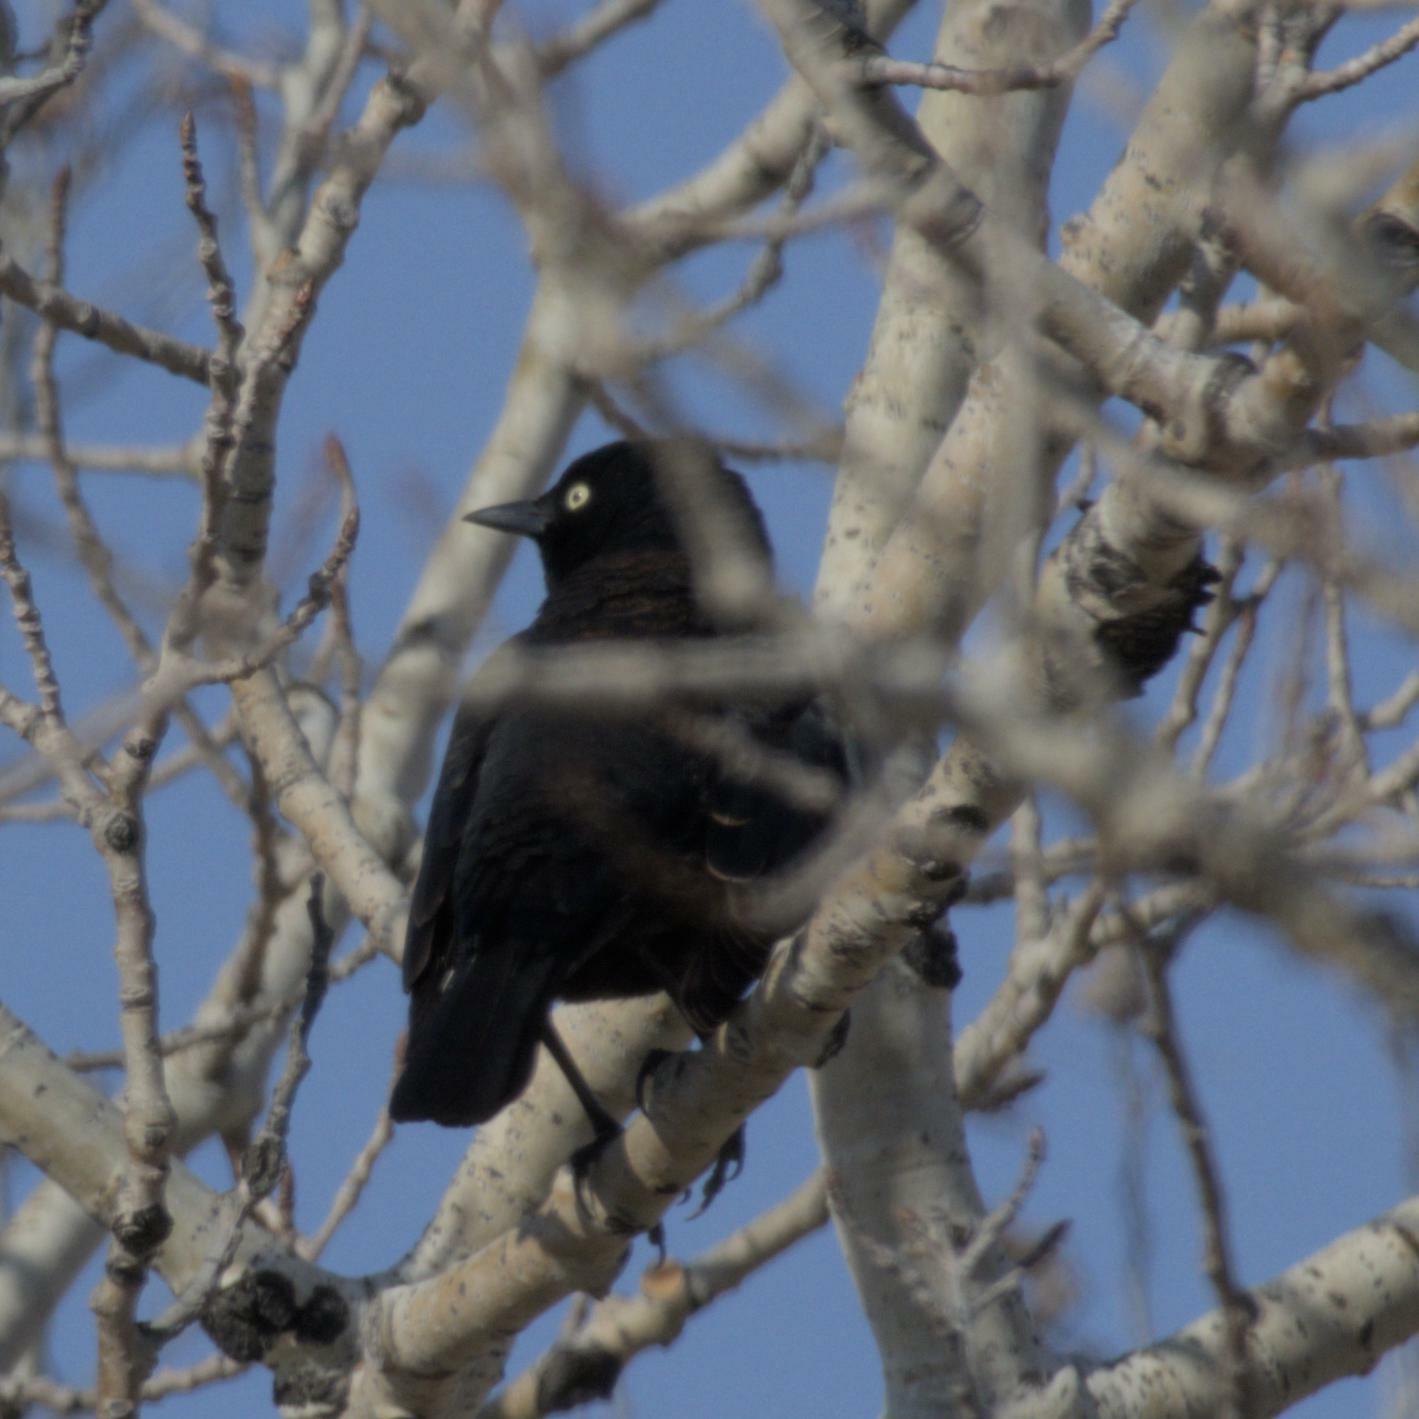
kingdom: Animalia
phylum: Chordata
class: Aves
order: Passeriformes
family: Icteridae
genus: Euphagus
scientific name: Euphagus carolinus
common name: Rusty blackbird
